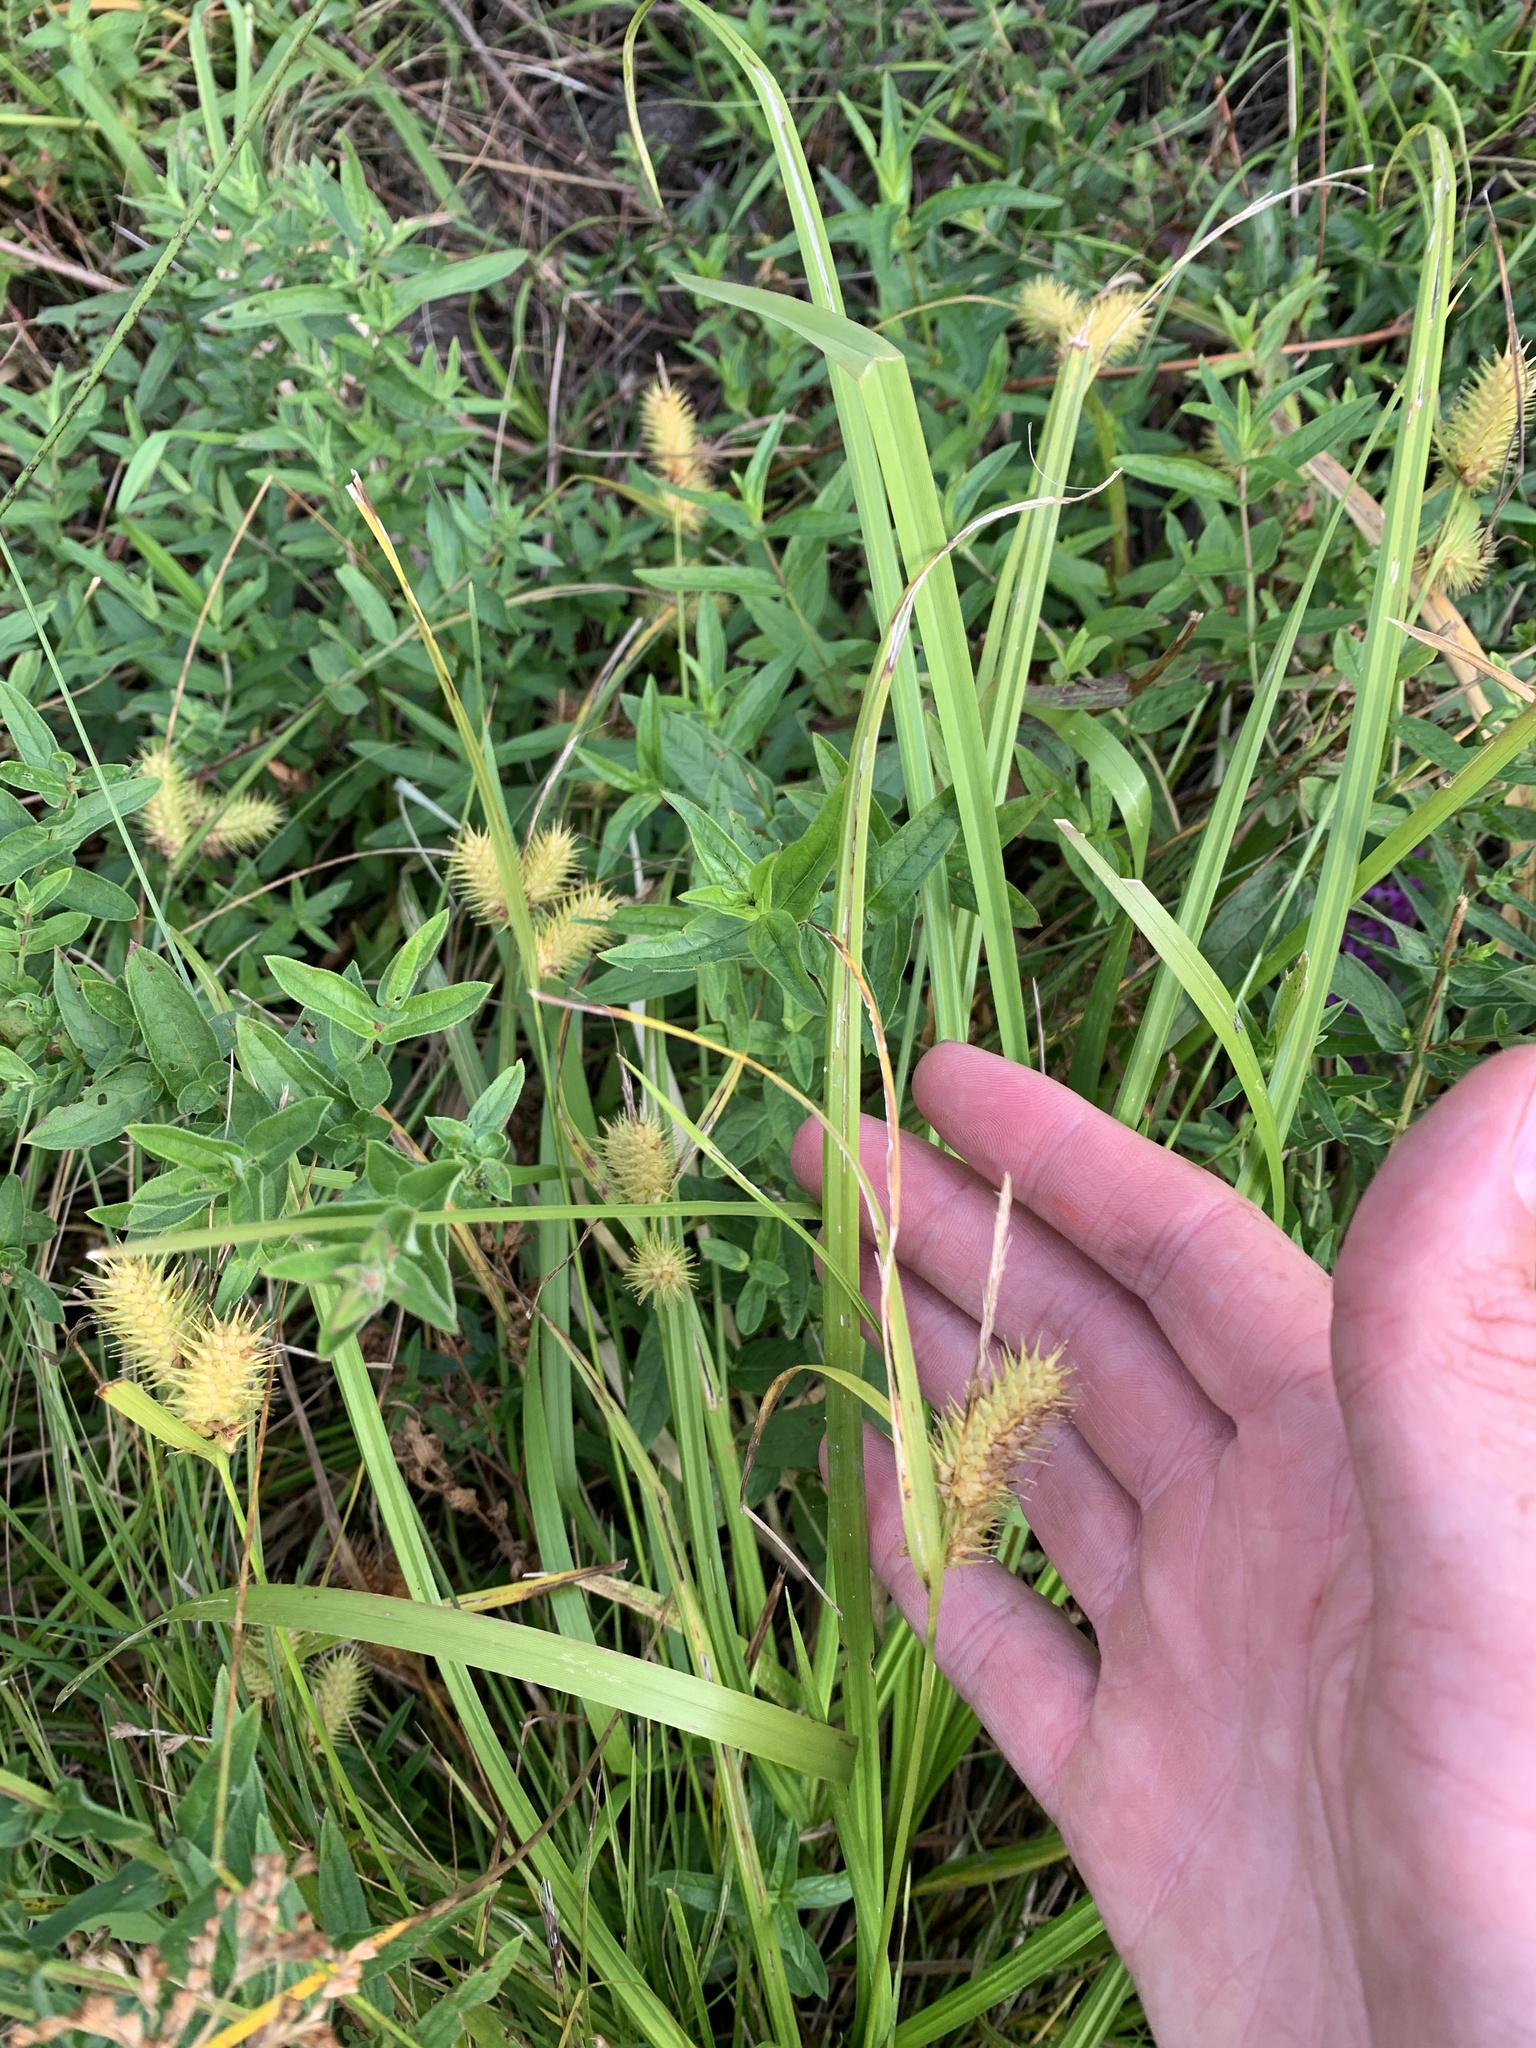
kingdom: Plantae
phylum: Tracheophyta
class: Liliopsida
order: Poales
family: Cyperaceae
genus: Carex
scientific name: Carex lurida
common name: Sallow sedge
